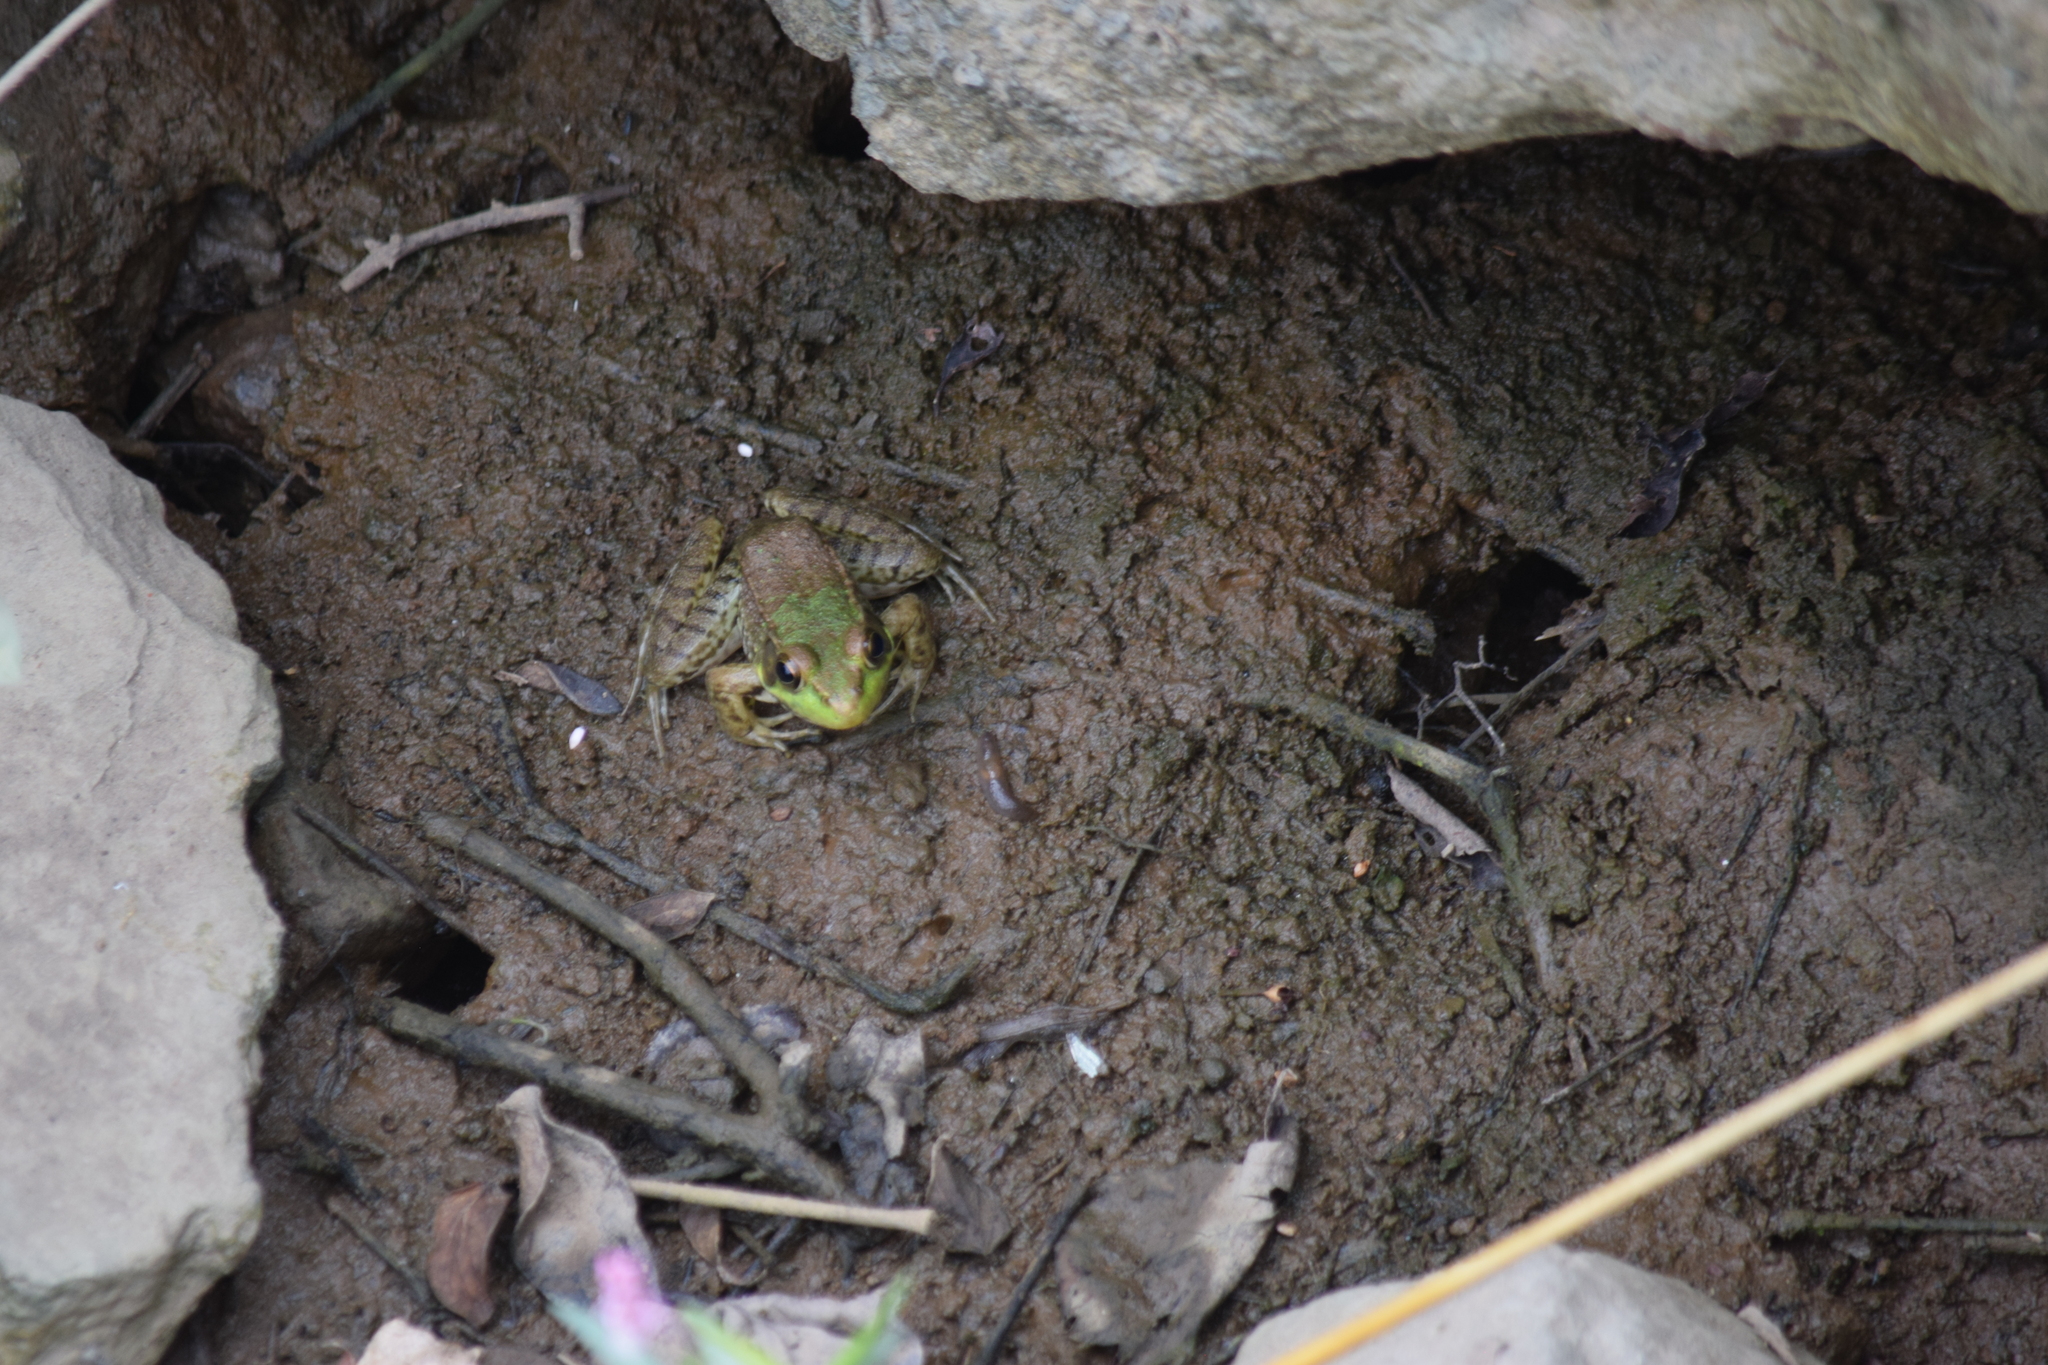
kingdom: Animalia
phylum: Chordata
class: Amphibia
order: Anura
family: Ranidae
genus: Lithobates
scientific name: Lithobates clamitans
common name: Green frog
